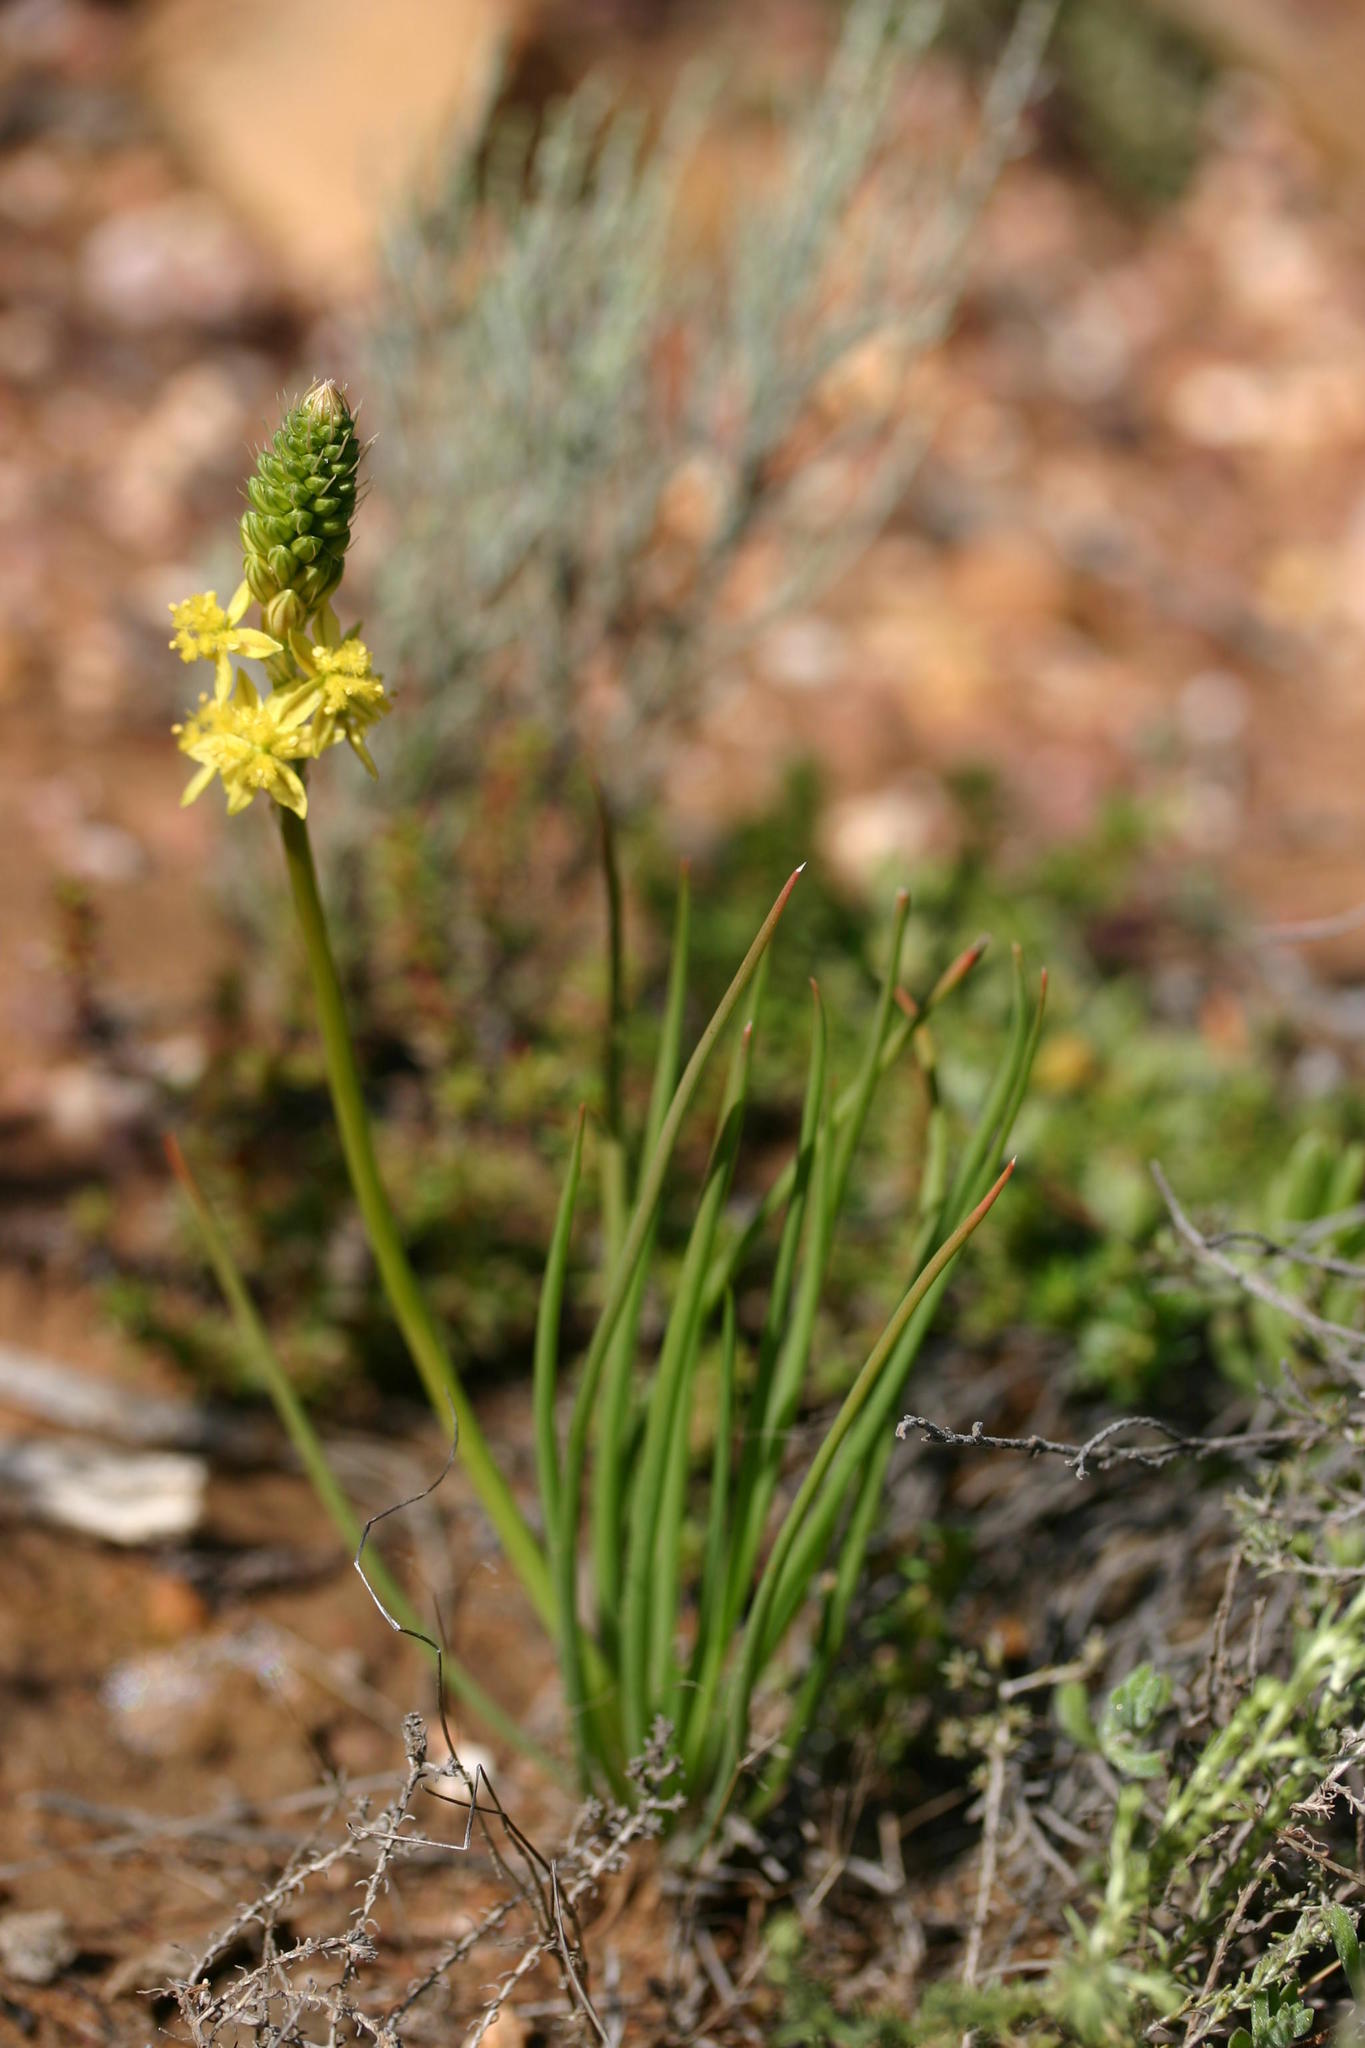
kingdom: Plantae
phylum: Tracheophyta
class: Liliopsida
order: Asparagales
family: Asphodelaceae
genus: Bulbine
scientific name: Bulbine lagopus
